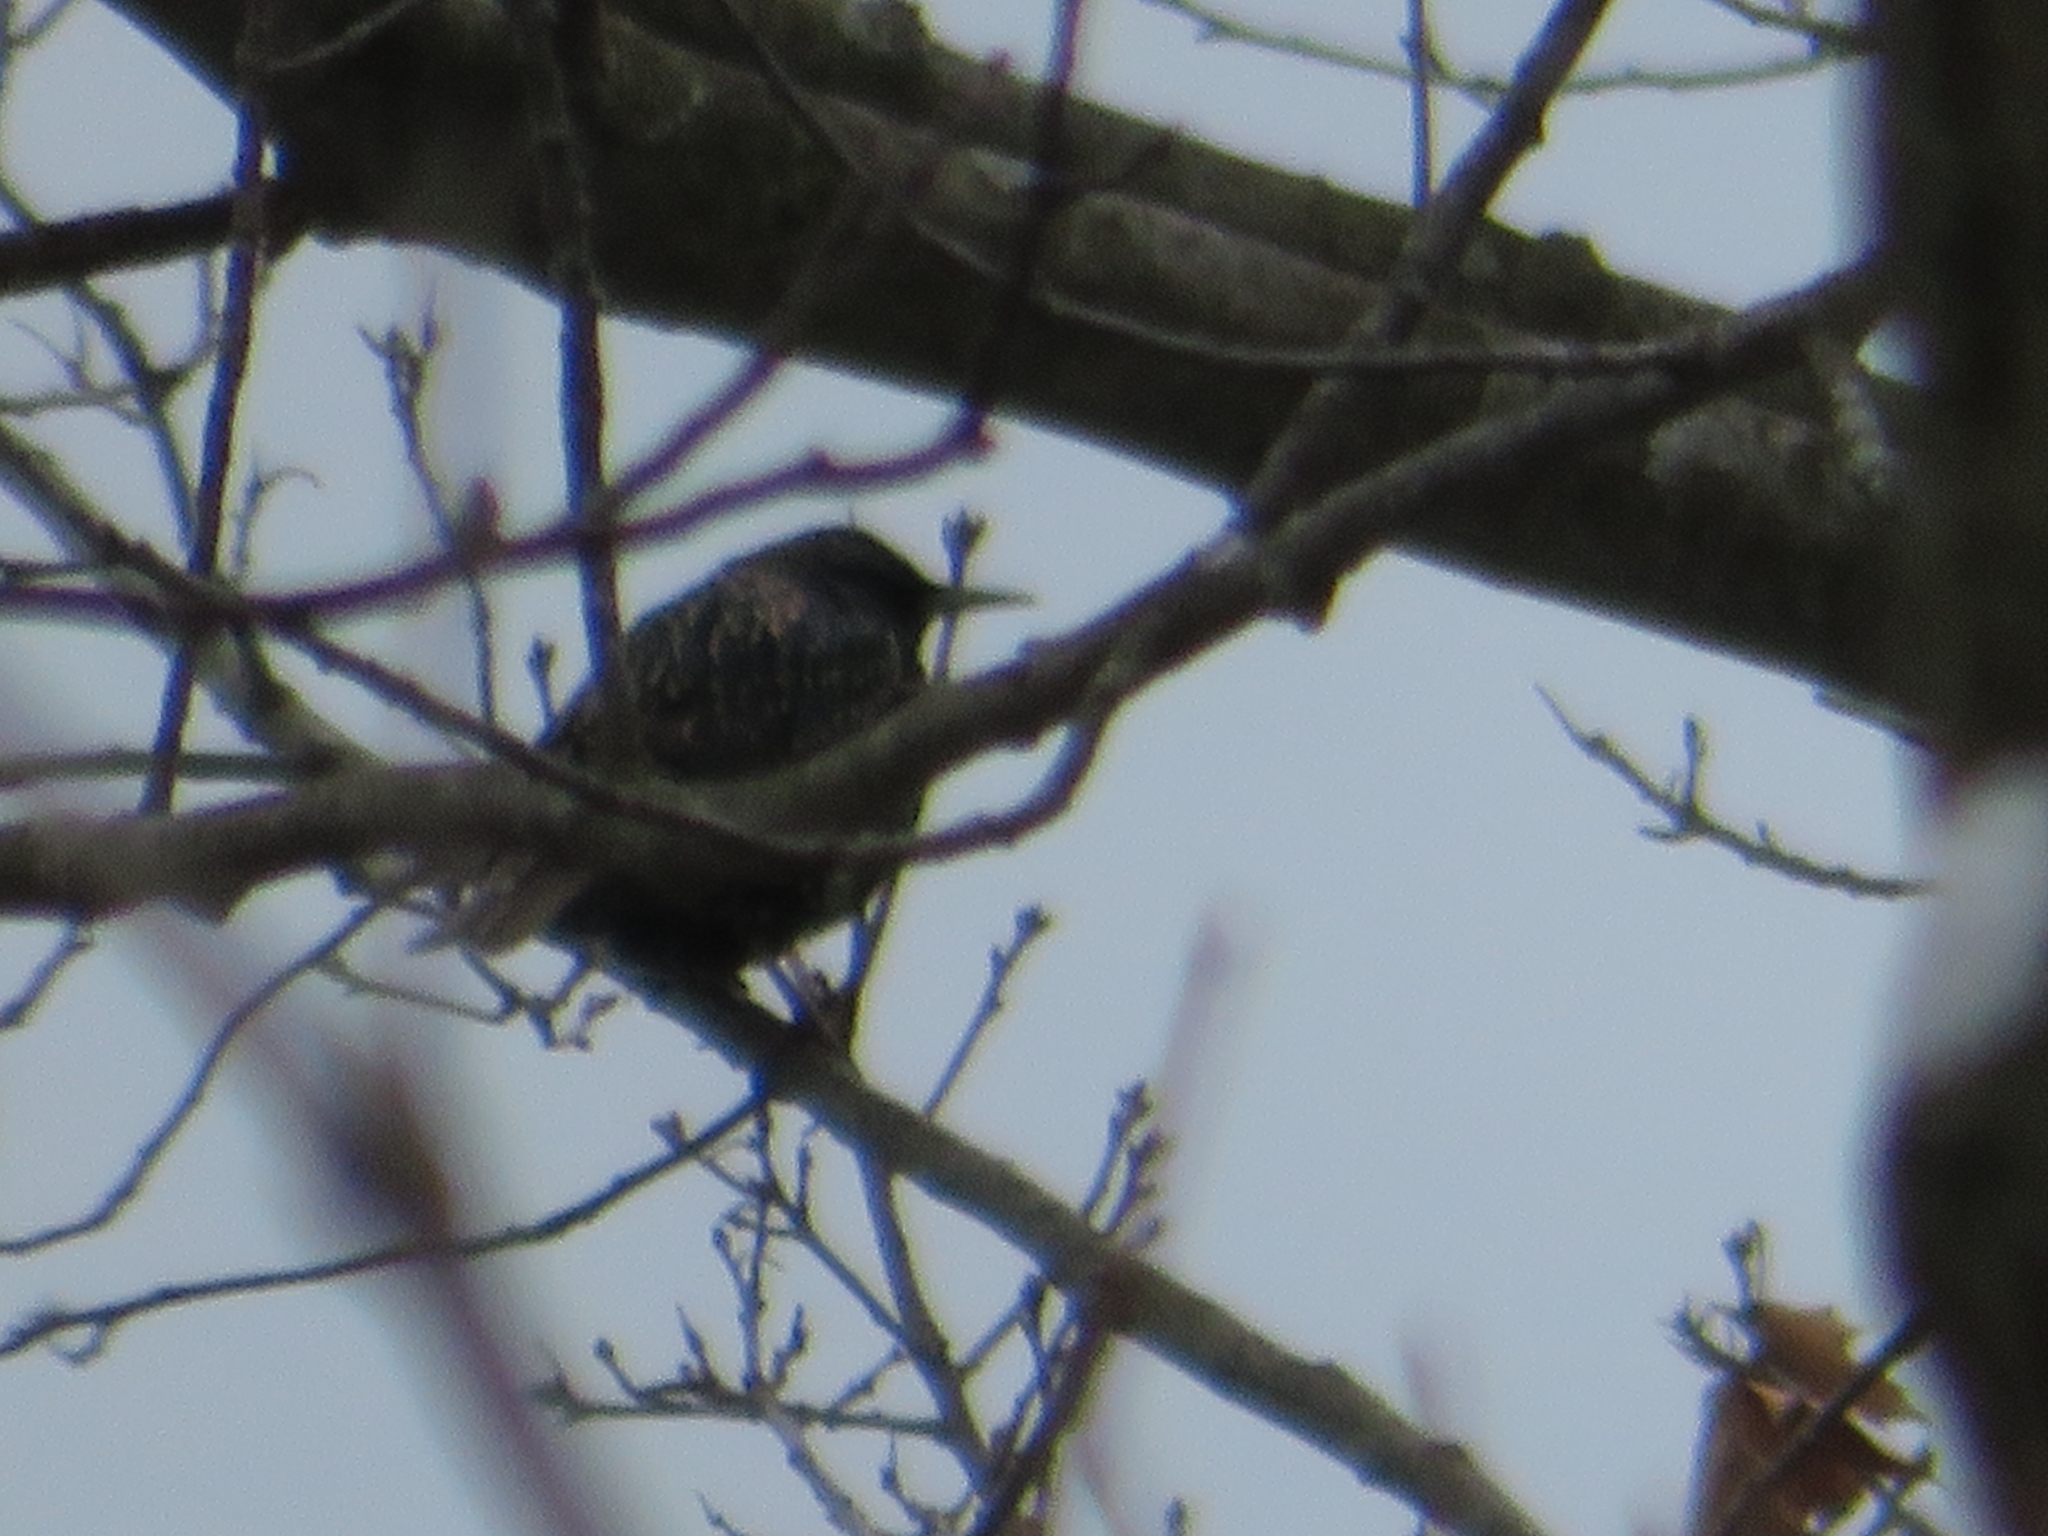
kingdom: Animalia
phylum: Chordata
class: Aves
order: Passeriformes
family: Sturnidae
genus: Sturnus
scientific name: Sturnus vulgaris
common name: Common starling
